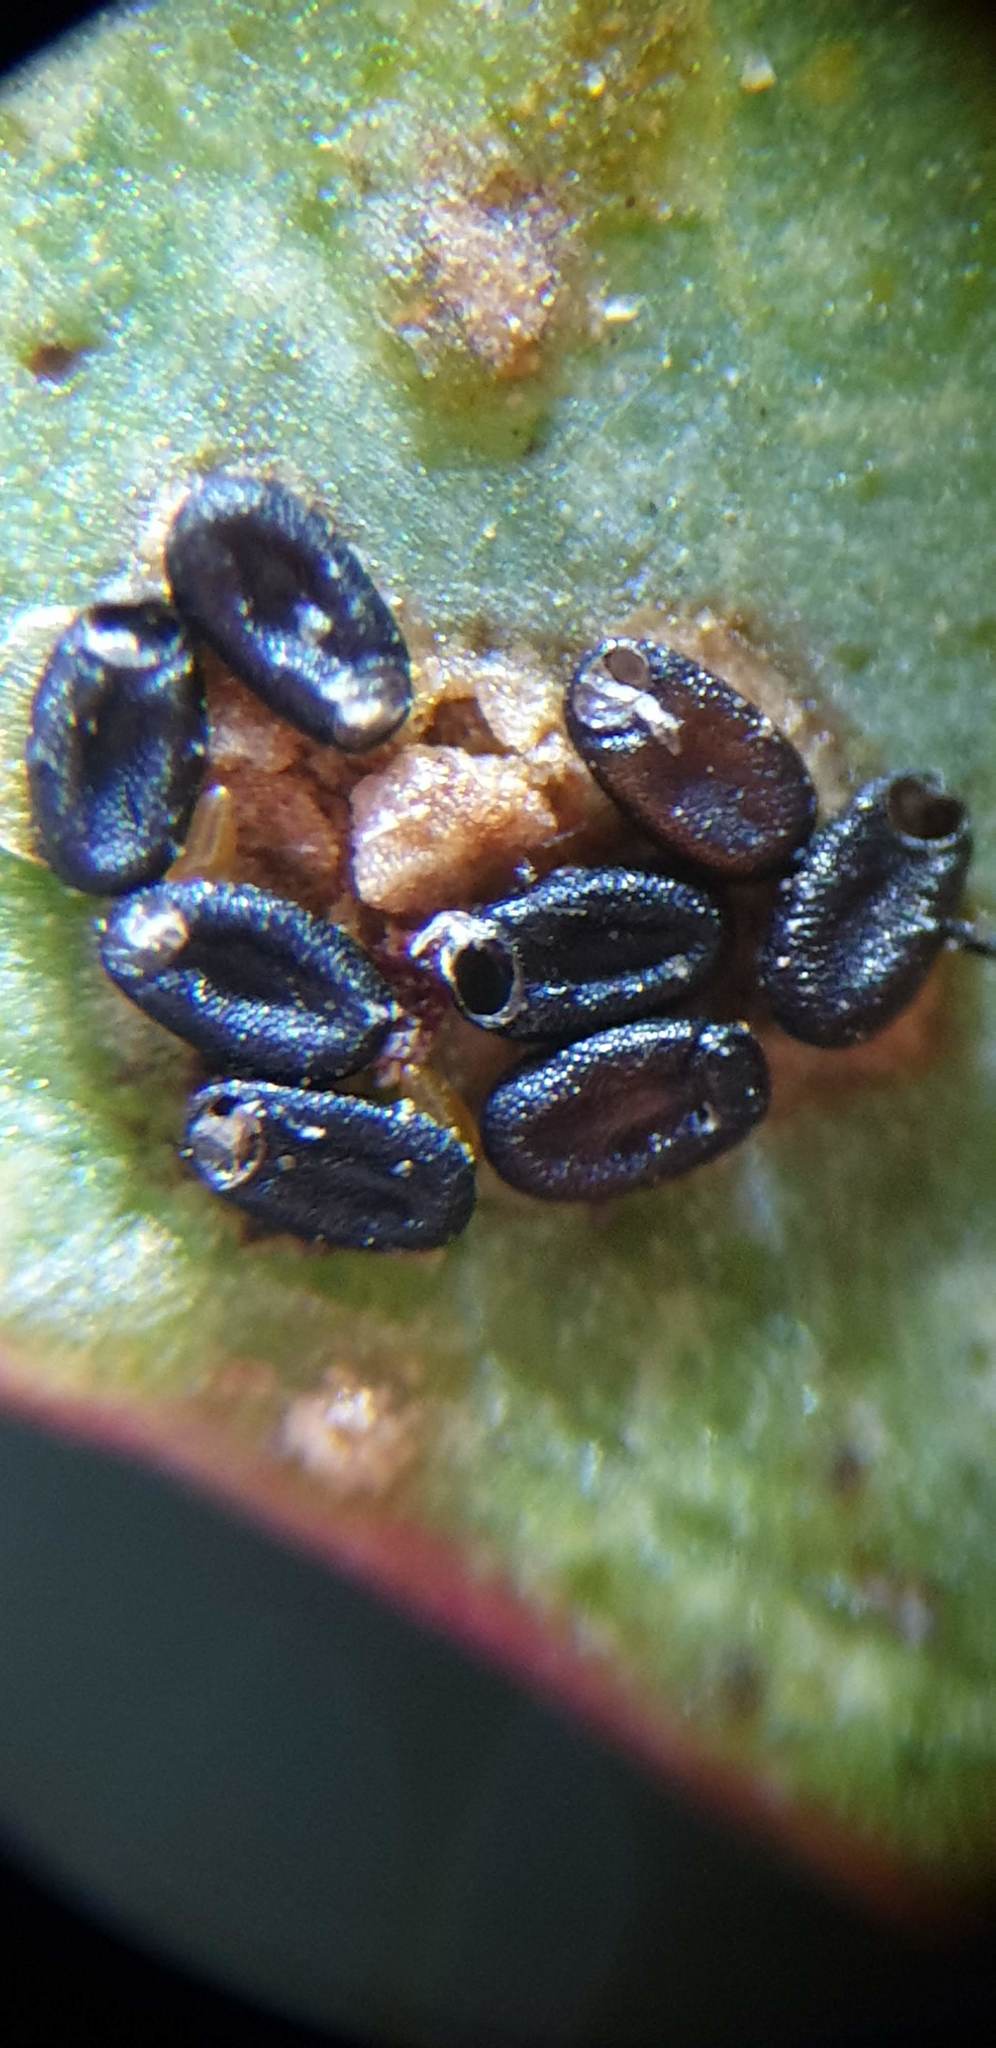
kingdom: Animalia
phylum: Arthropoda
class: Insecta
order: Hemiptera
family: Thaumastocoridae
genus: Thaumastocoris
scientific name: Thaumastocoris peregrinus
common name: Bronze bug
